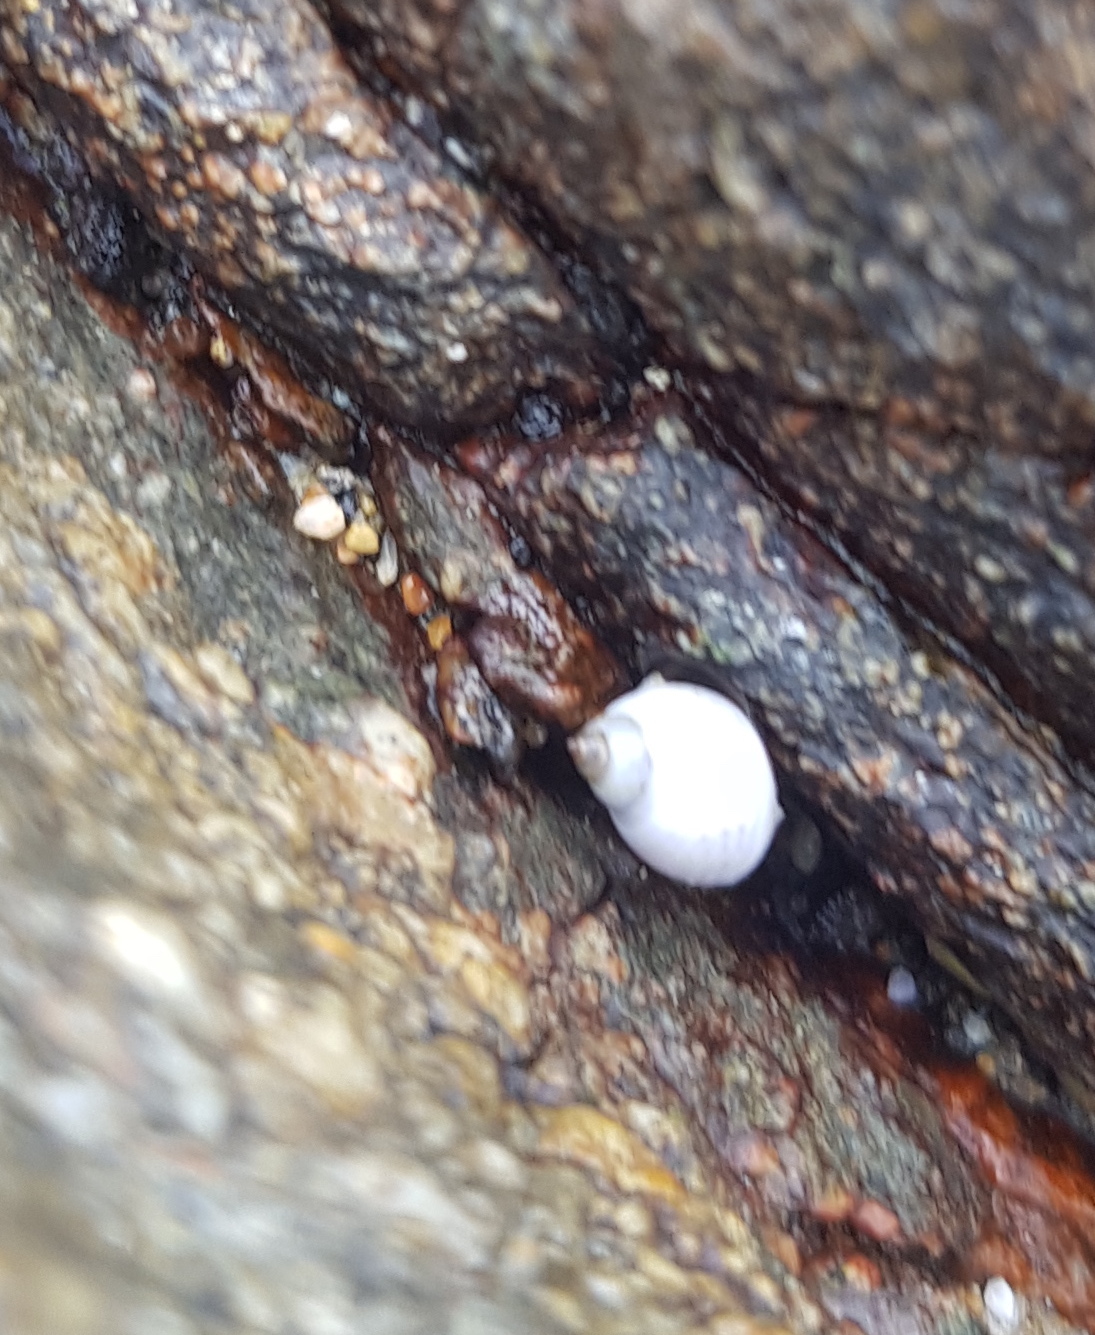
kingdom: Animalia
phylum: Mollusca
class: Gastropoda
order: Littorinimorpha
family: Littorinidae
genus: Echinolittorina
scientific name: Echinolittorina modesta
